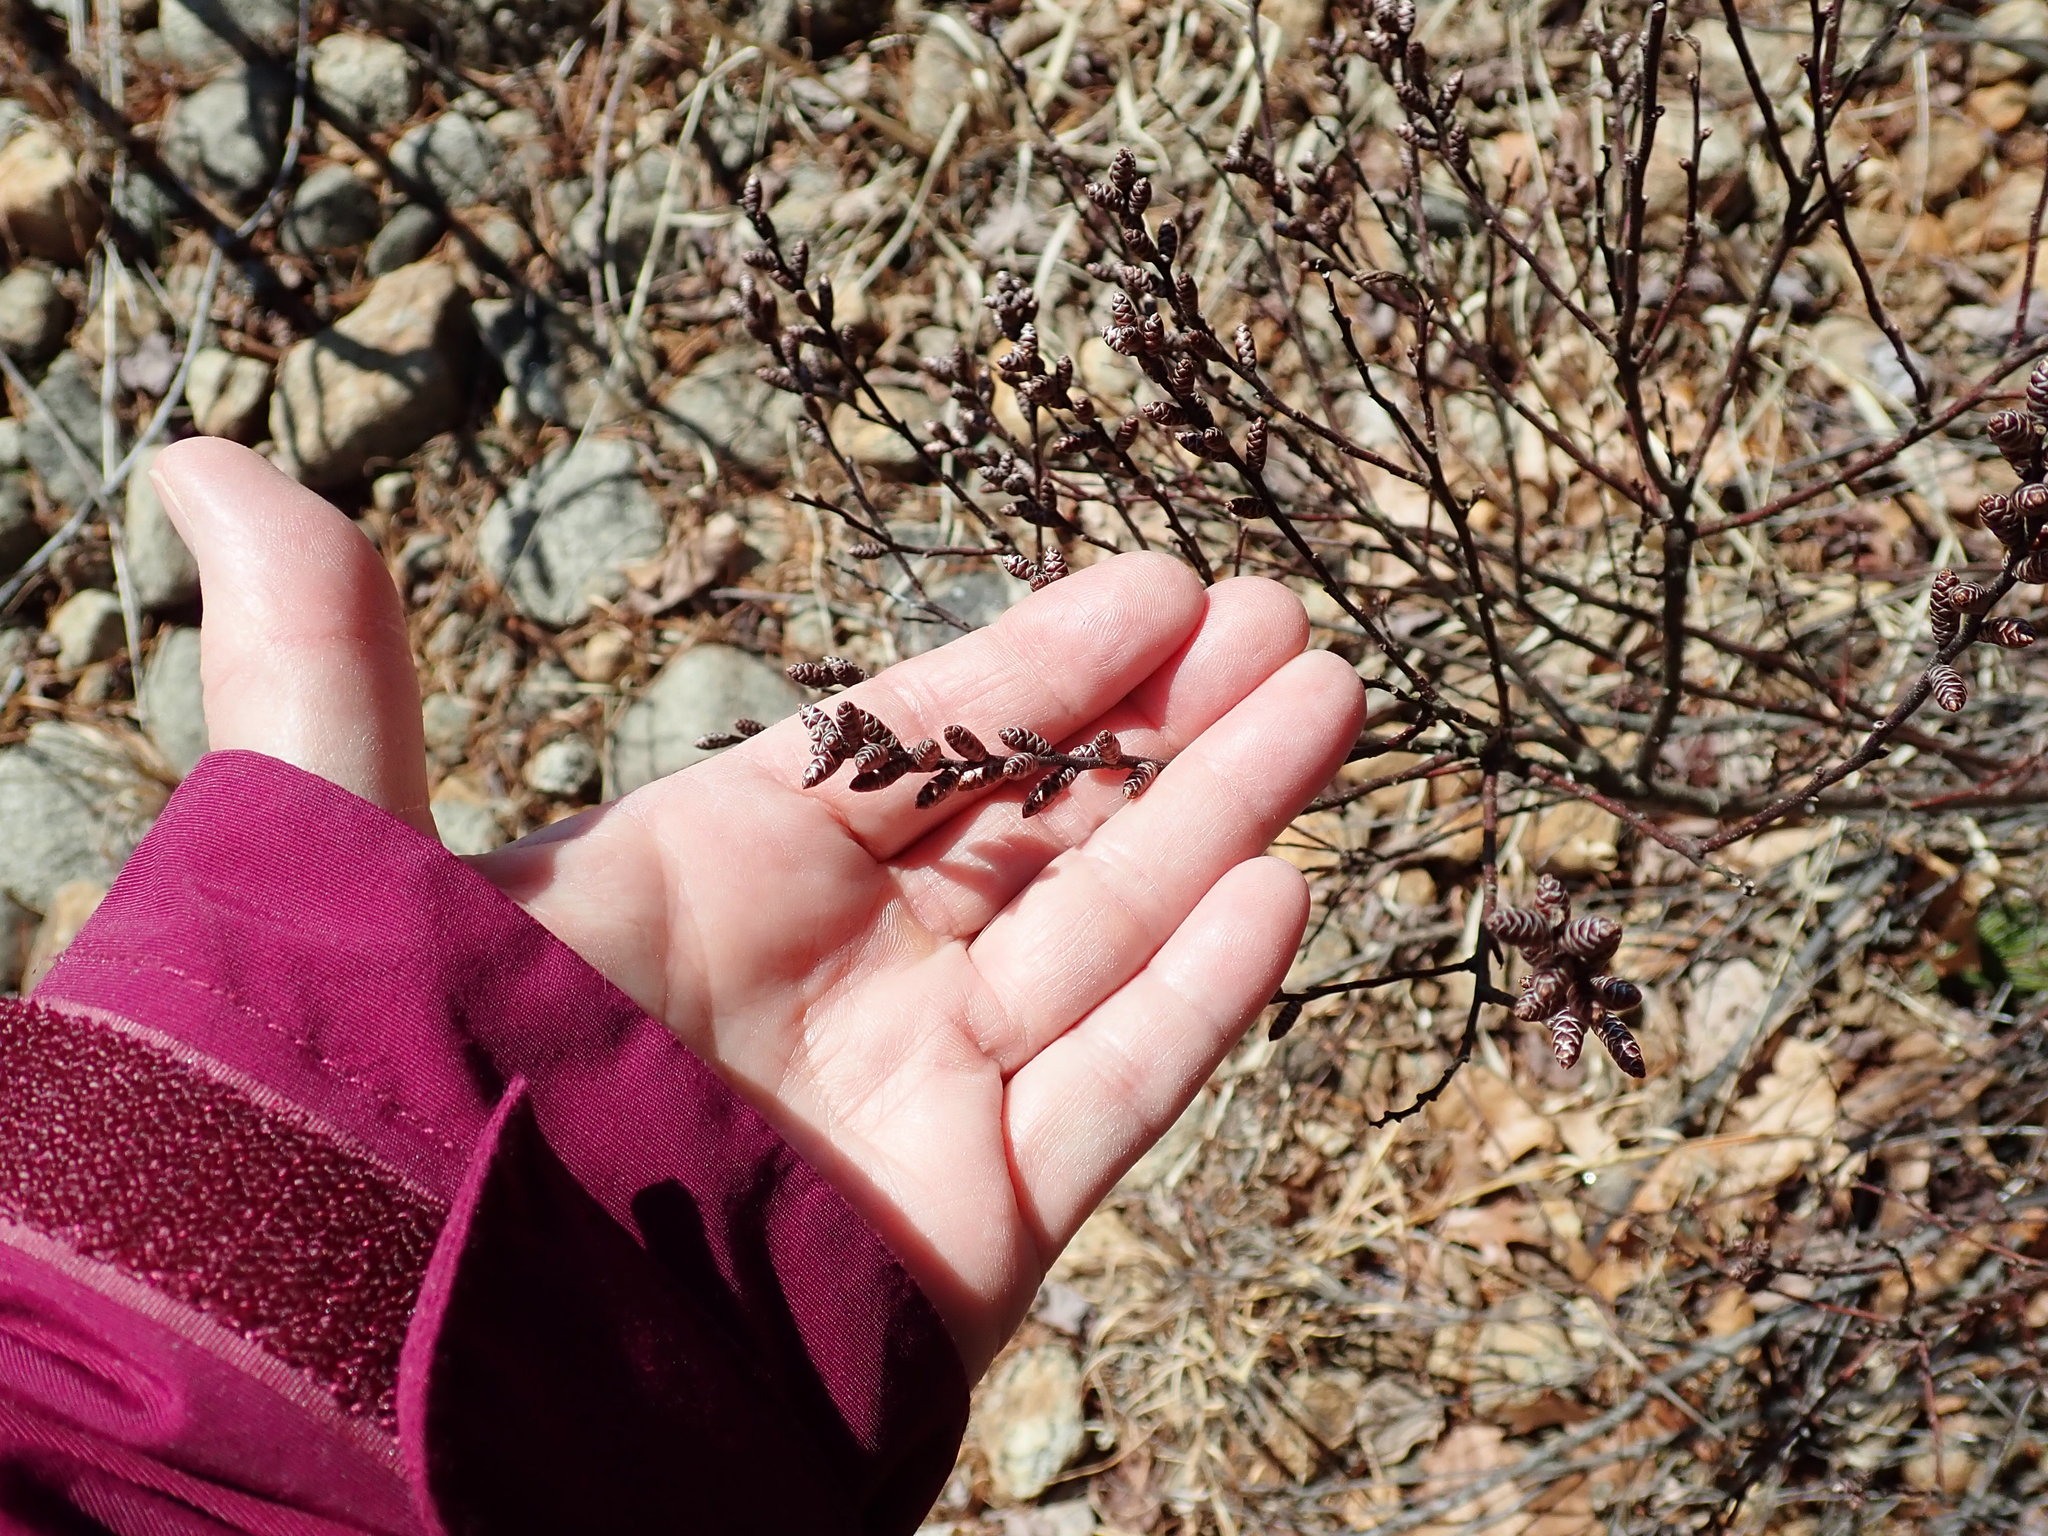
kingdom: Plantae
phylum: Tracheophyta
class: Magnoliopsida
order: Fagales
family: Myricaceae
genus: Myrica
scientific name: Myrica gale
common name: Sweet gale
